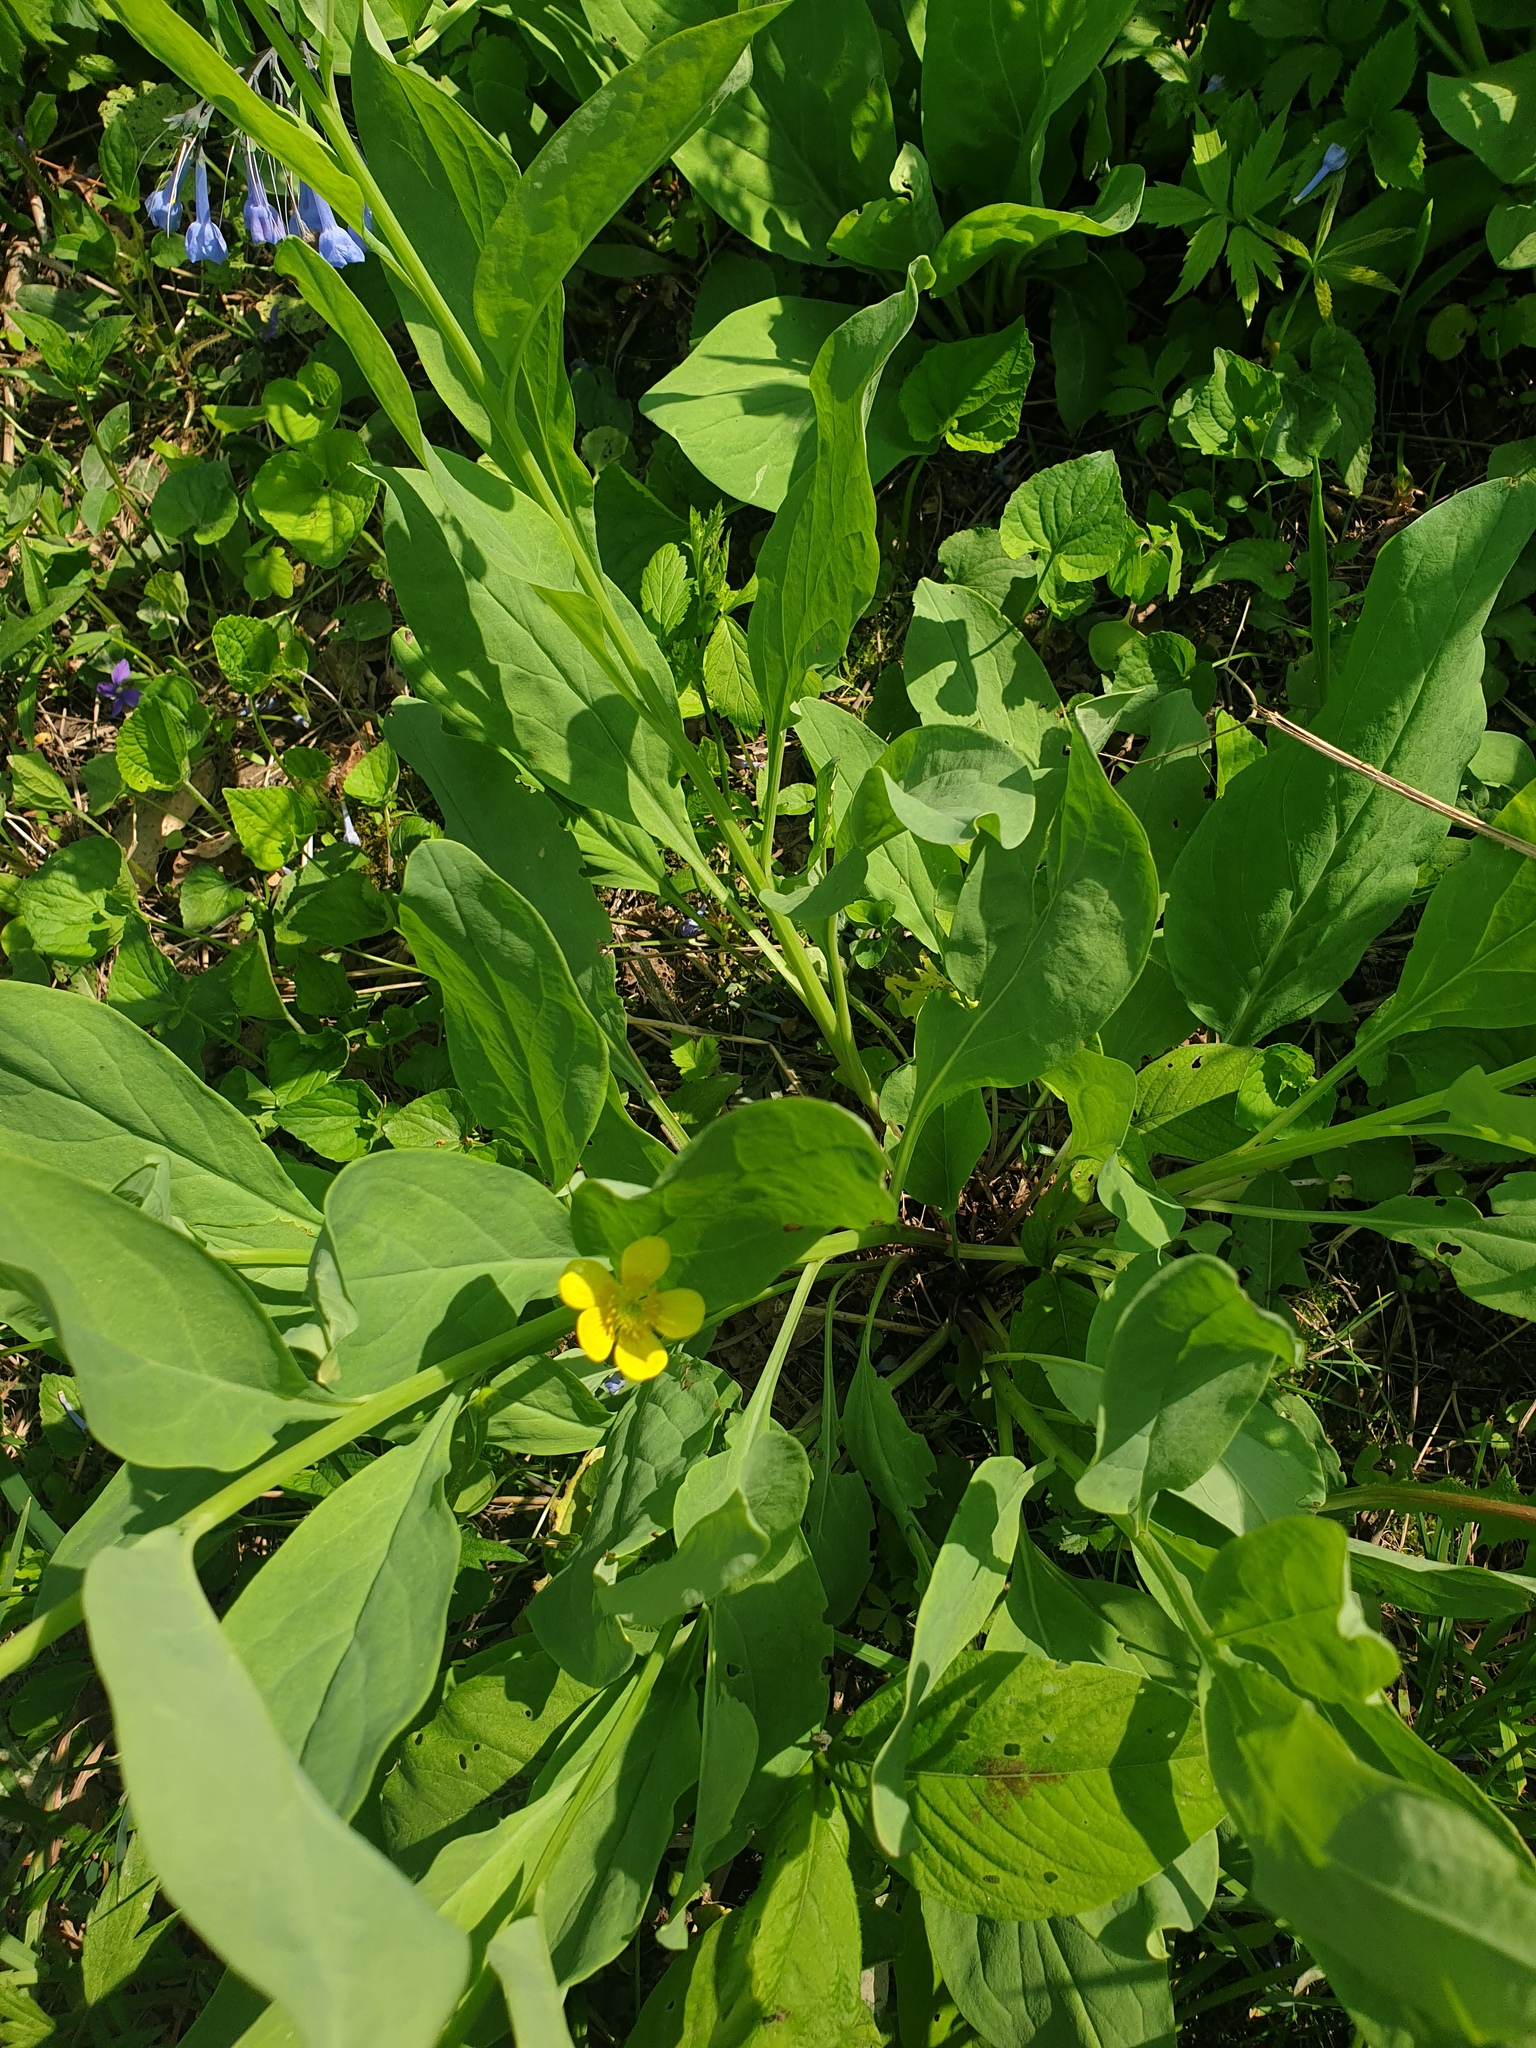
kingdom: Plantae
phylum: Tracheophyta
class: Magnoliopsida
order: Boraginales
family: Boraginaceae
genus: Mertensia
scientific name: Mertensia virginica
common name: Virginia bluebells
